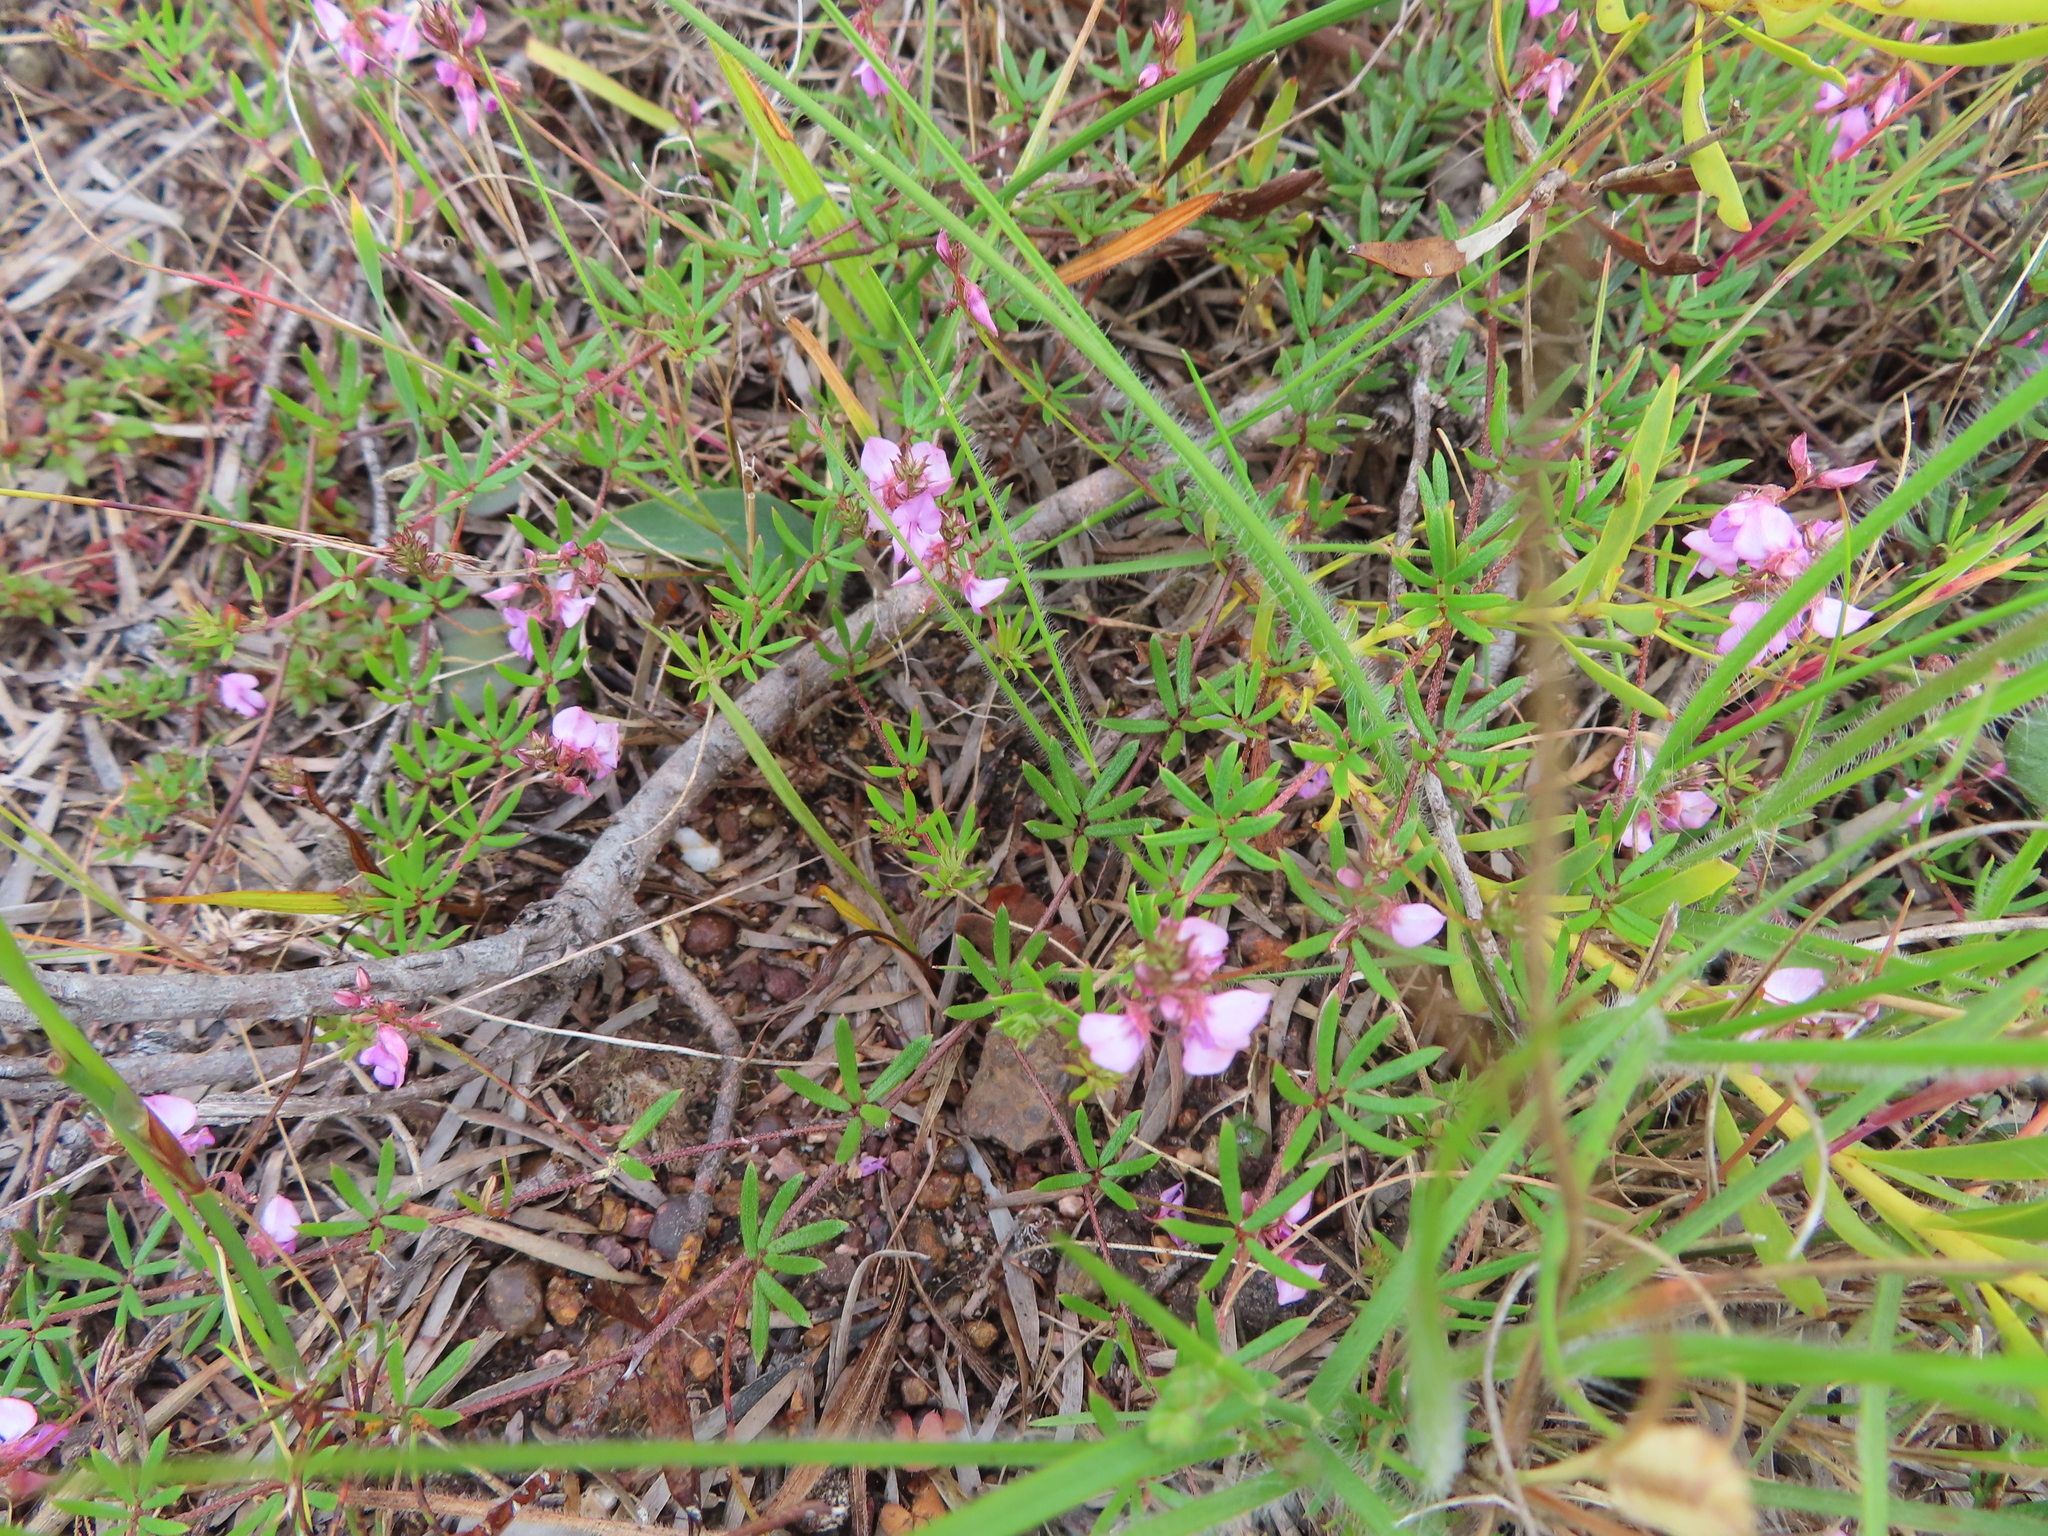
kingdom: Plantae
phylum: Tracheophyta
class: Magnoliopsida
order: Fabales
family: Fabaceae
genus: Indigofera
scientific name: Indigofera angustifolia
